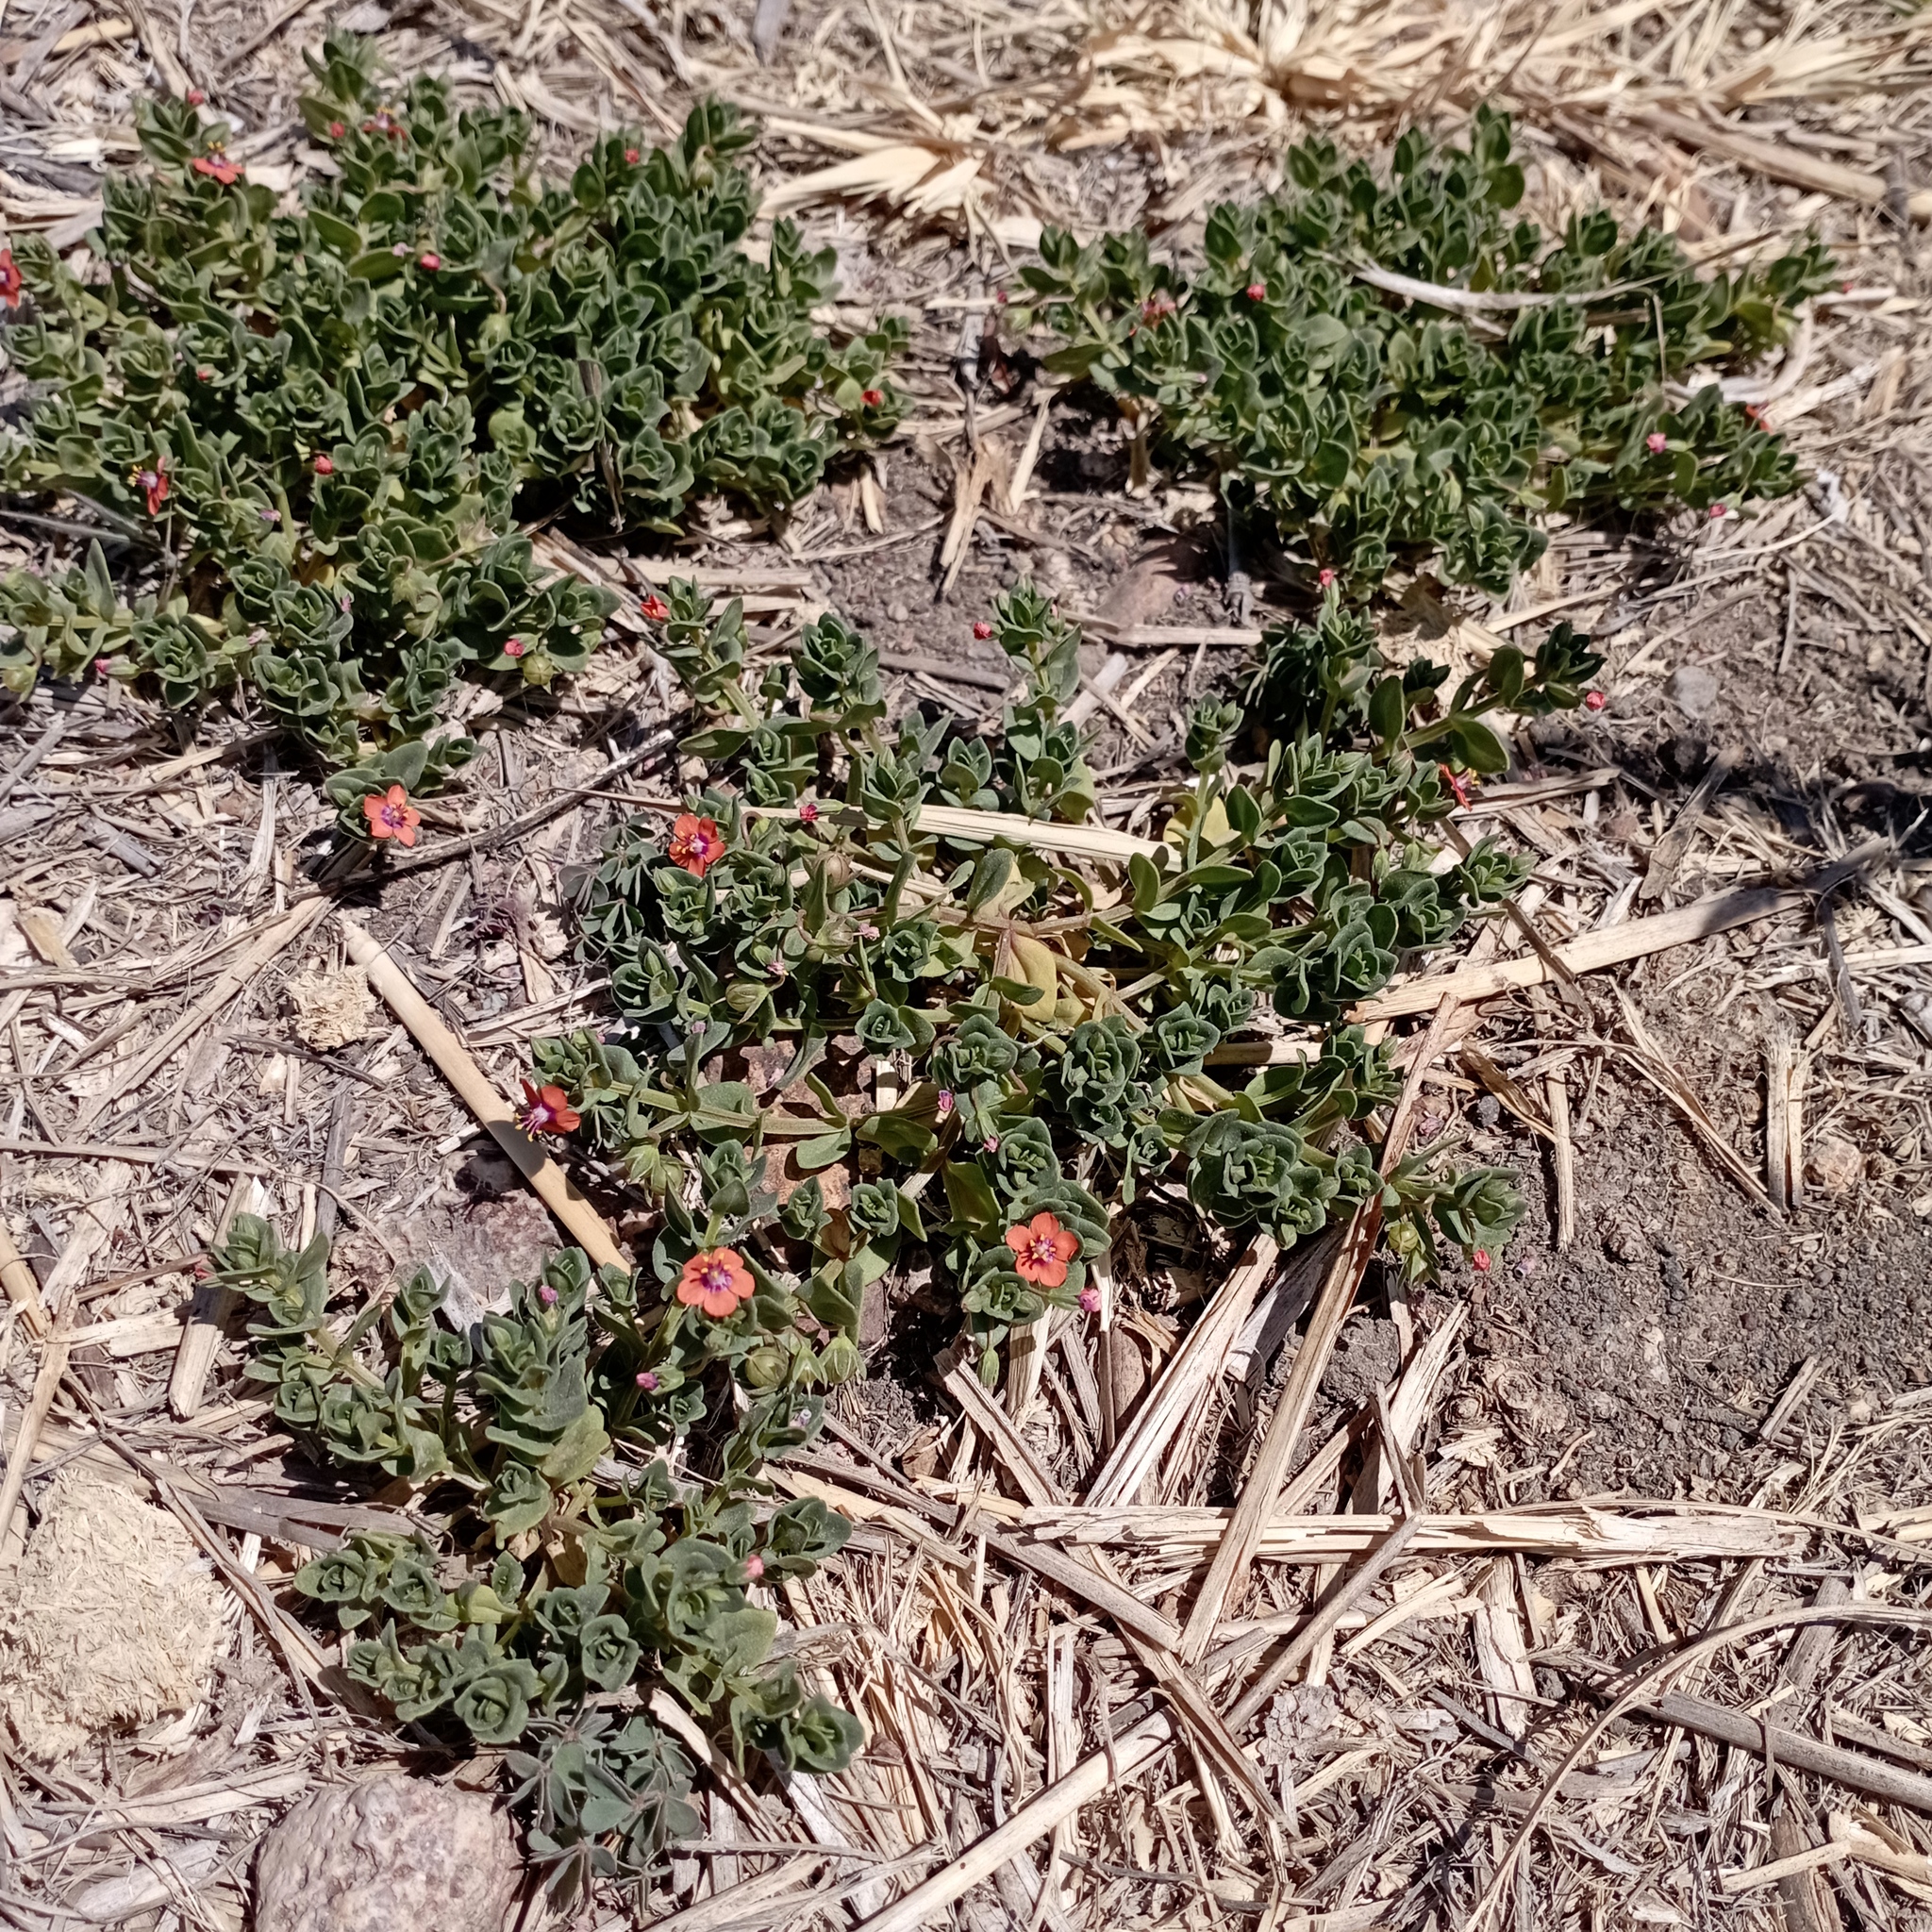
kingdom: Plantae
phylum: Tracheophyta
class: Magnoliopsida
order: Ericales
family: Primulaceae
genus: Lysimachia
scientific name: Lysimachia arvensis
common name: Scarlet pimpernel
